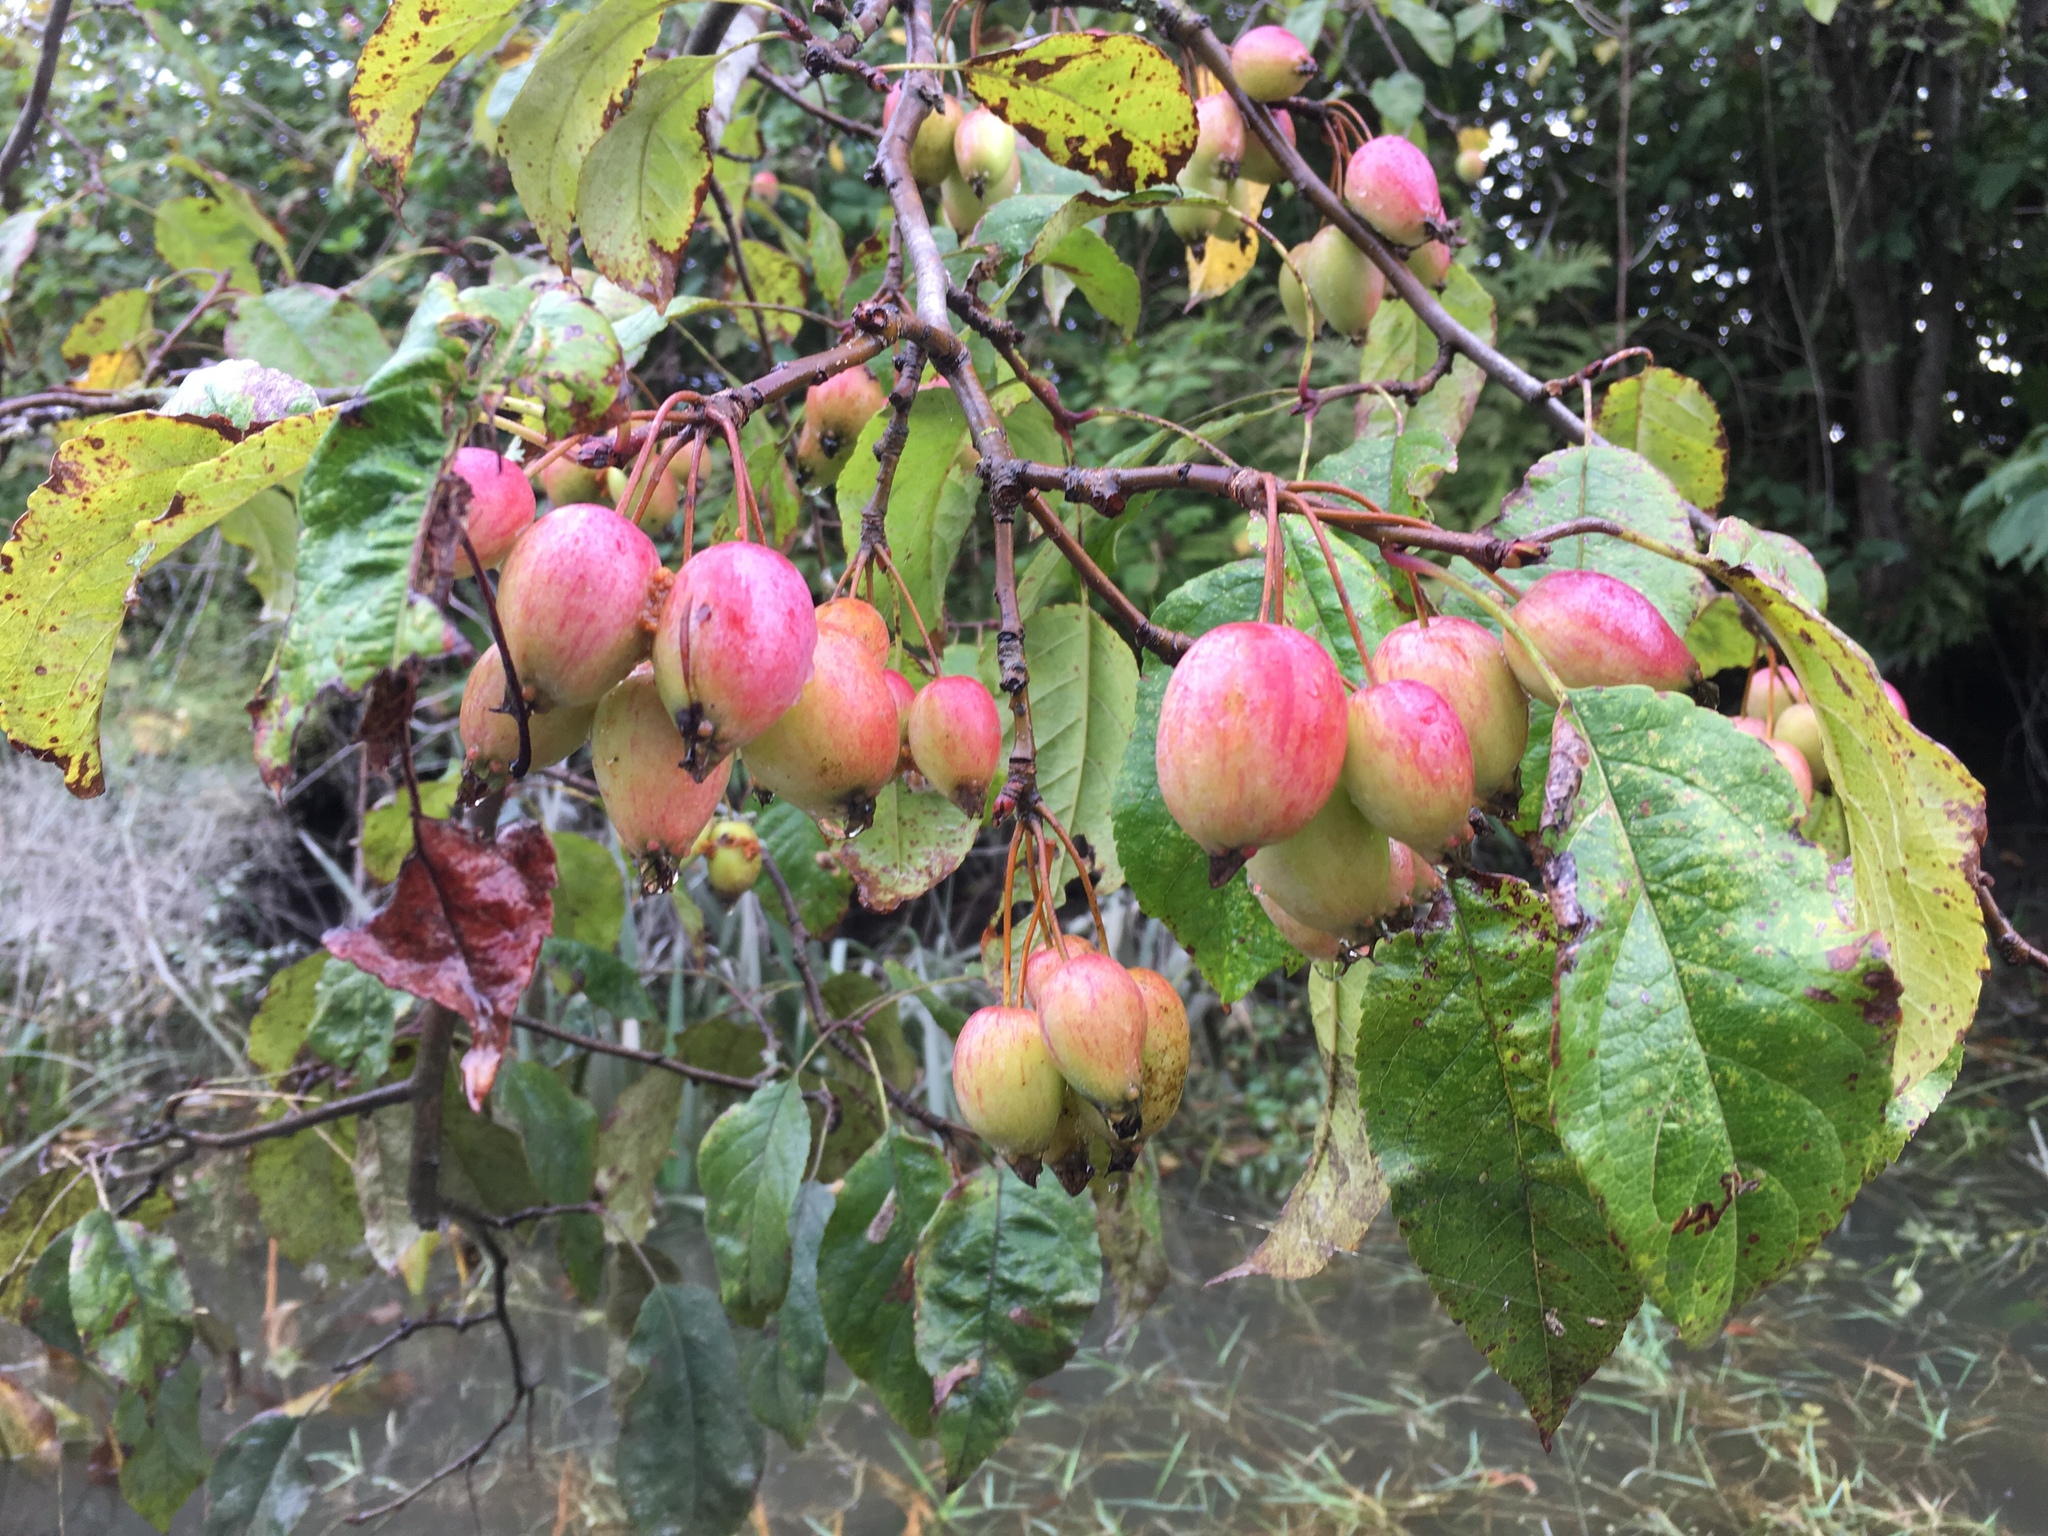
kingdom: Plantae
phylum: Tracheophyta
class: Magnoliopsida
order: Rosales
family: Rosaceae
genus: Malus
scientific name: Malus fusca
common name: Oregon crab apple
